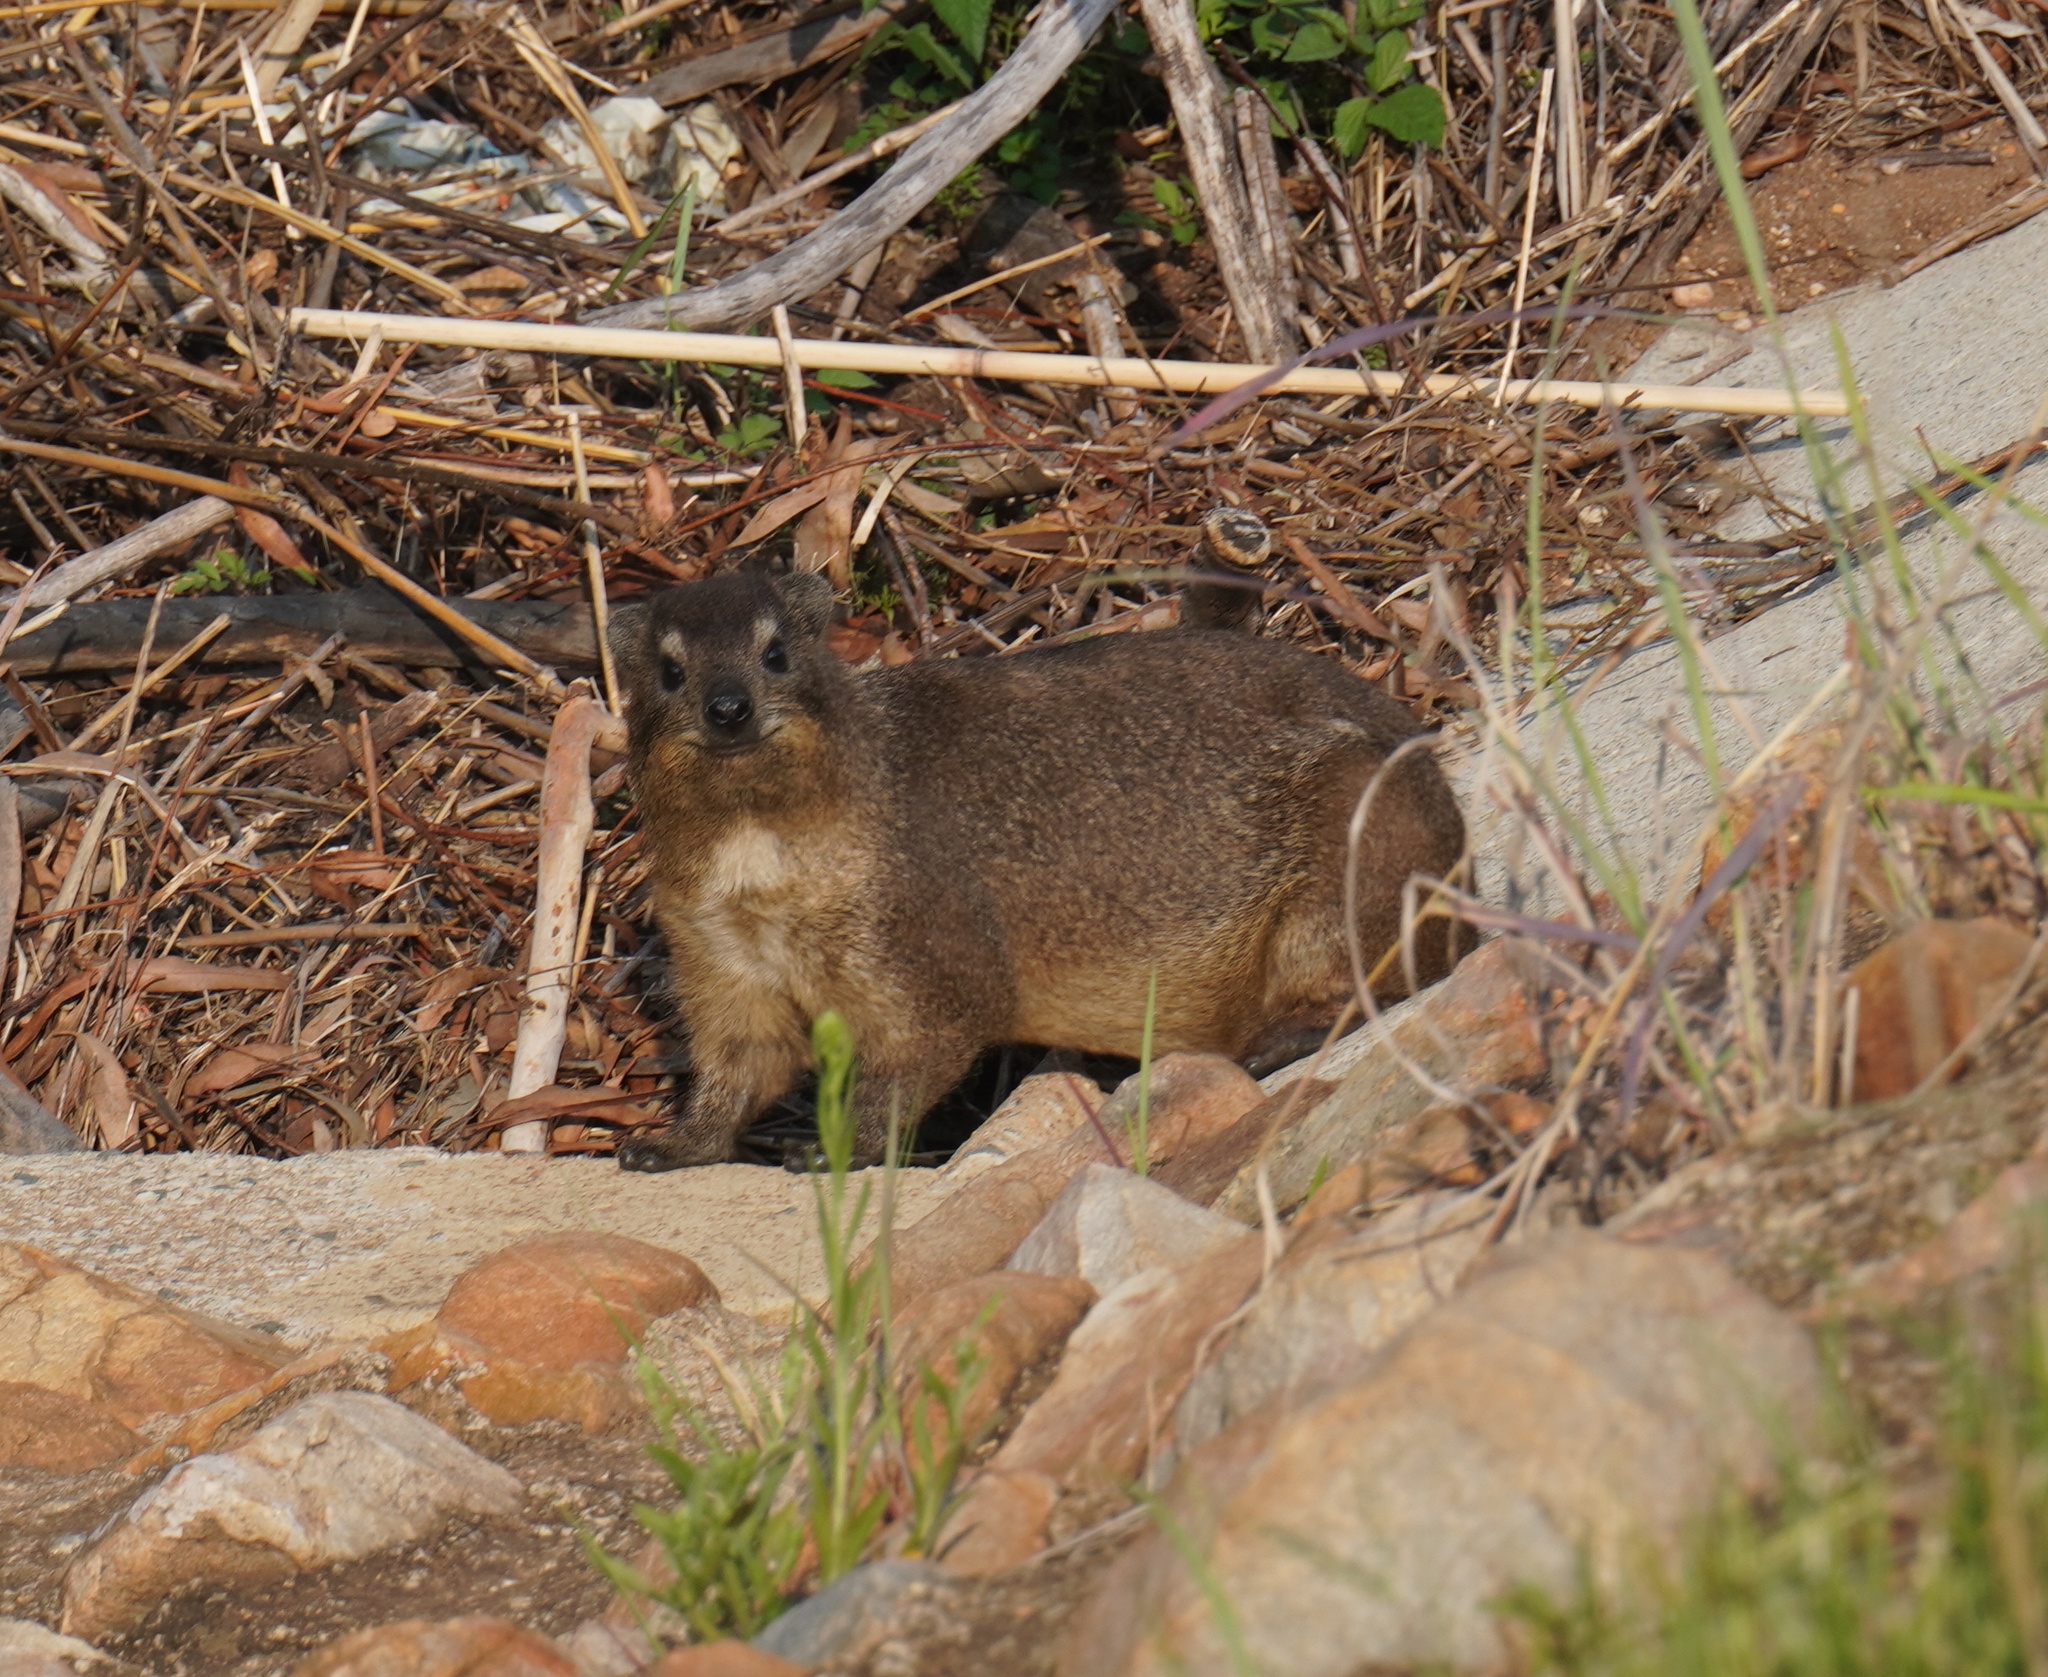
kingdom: Animalia
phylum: Chordata
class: Mammalia
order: Hyracoidea
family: Procaviidae
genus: Procavia
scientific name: Procavia capensis
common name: Rock hyrax
